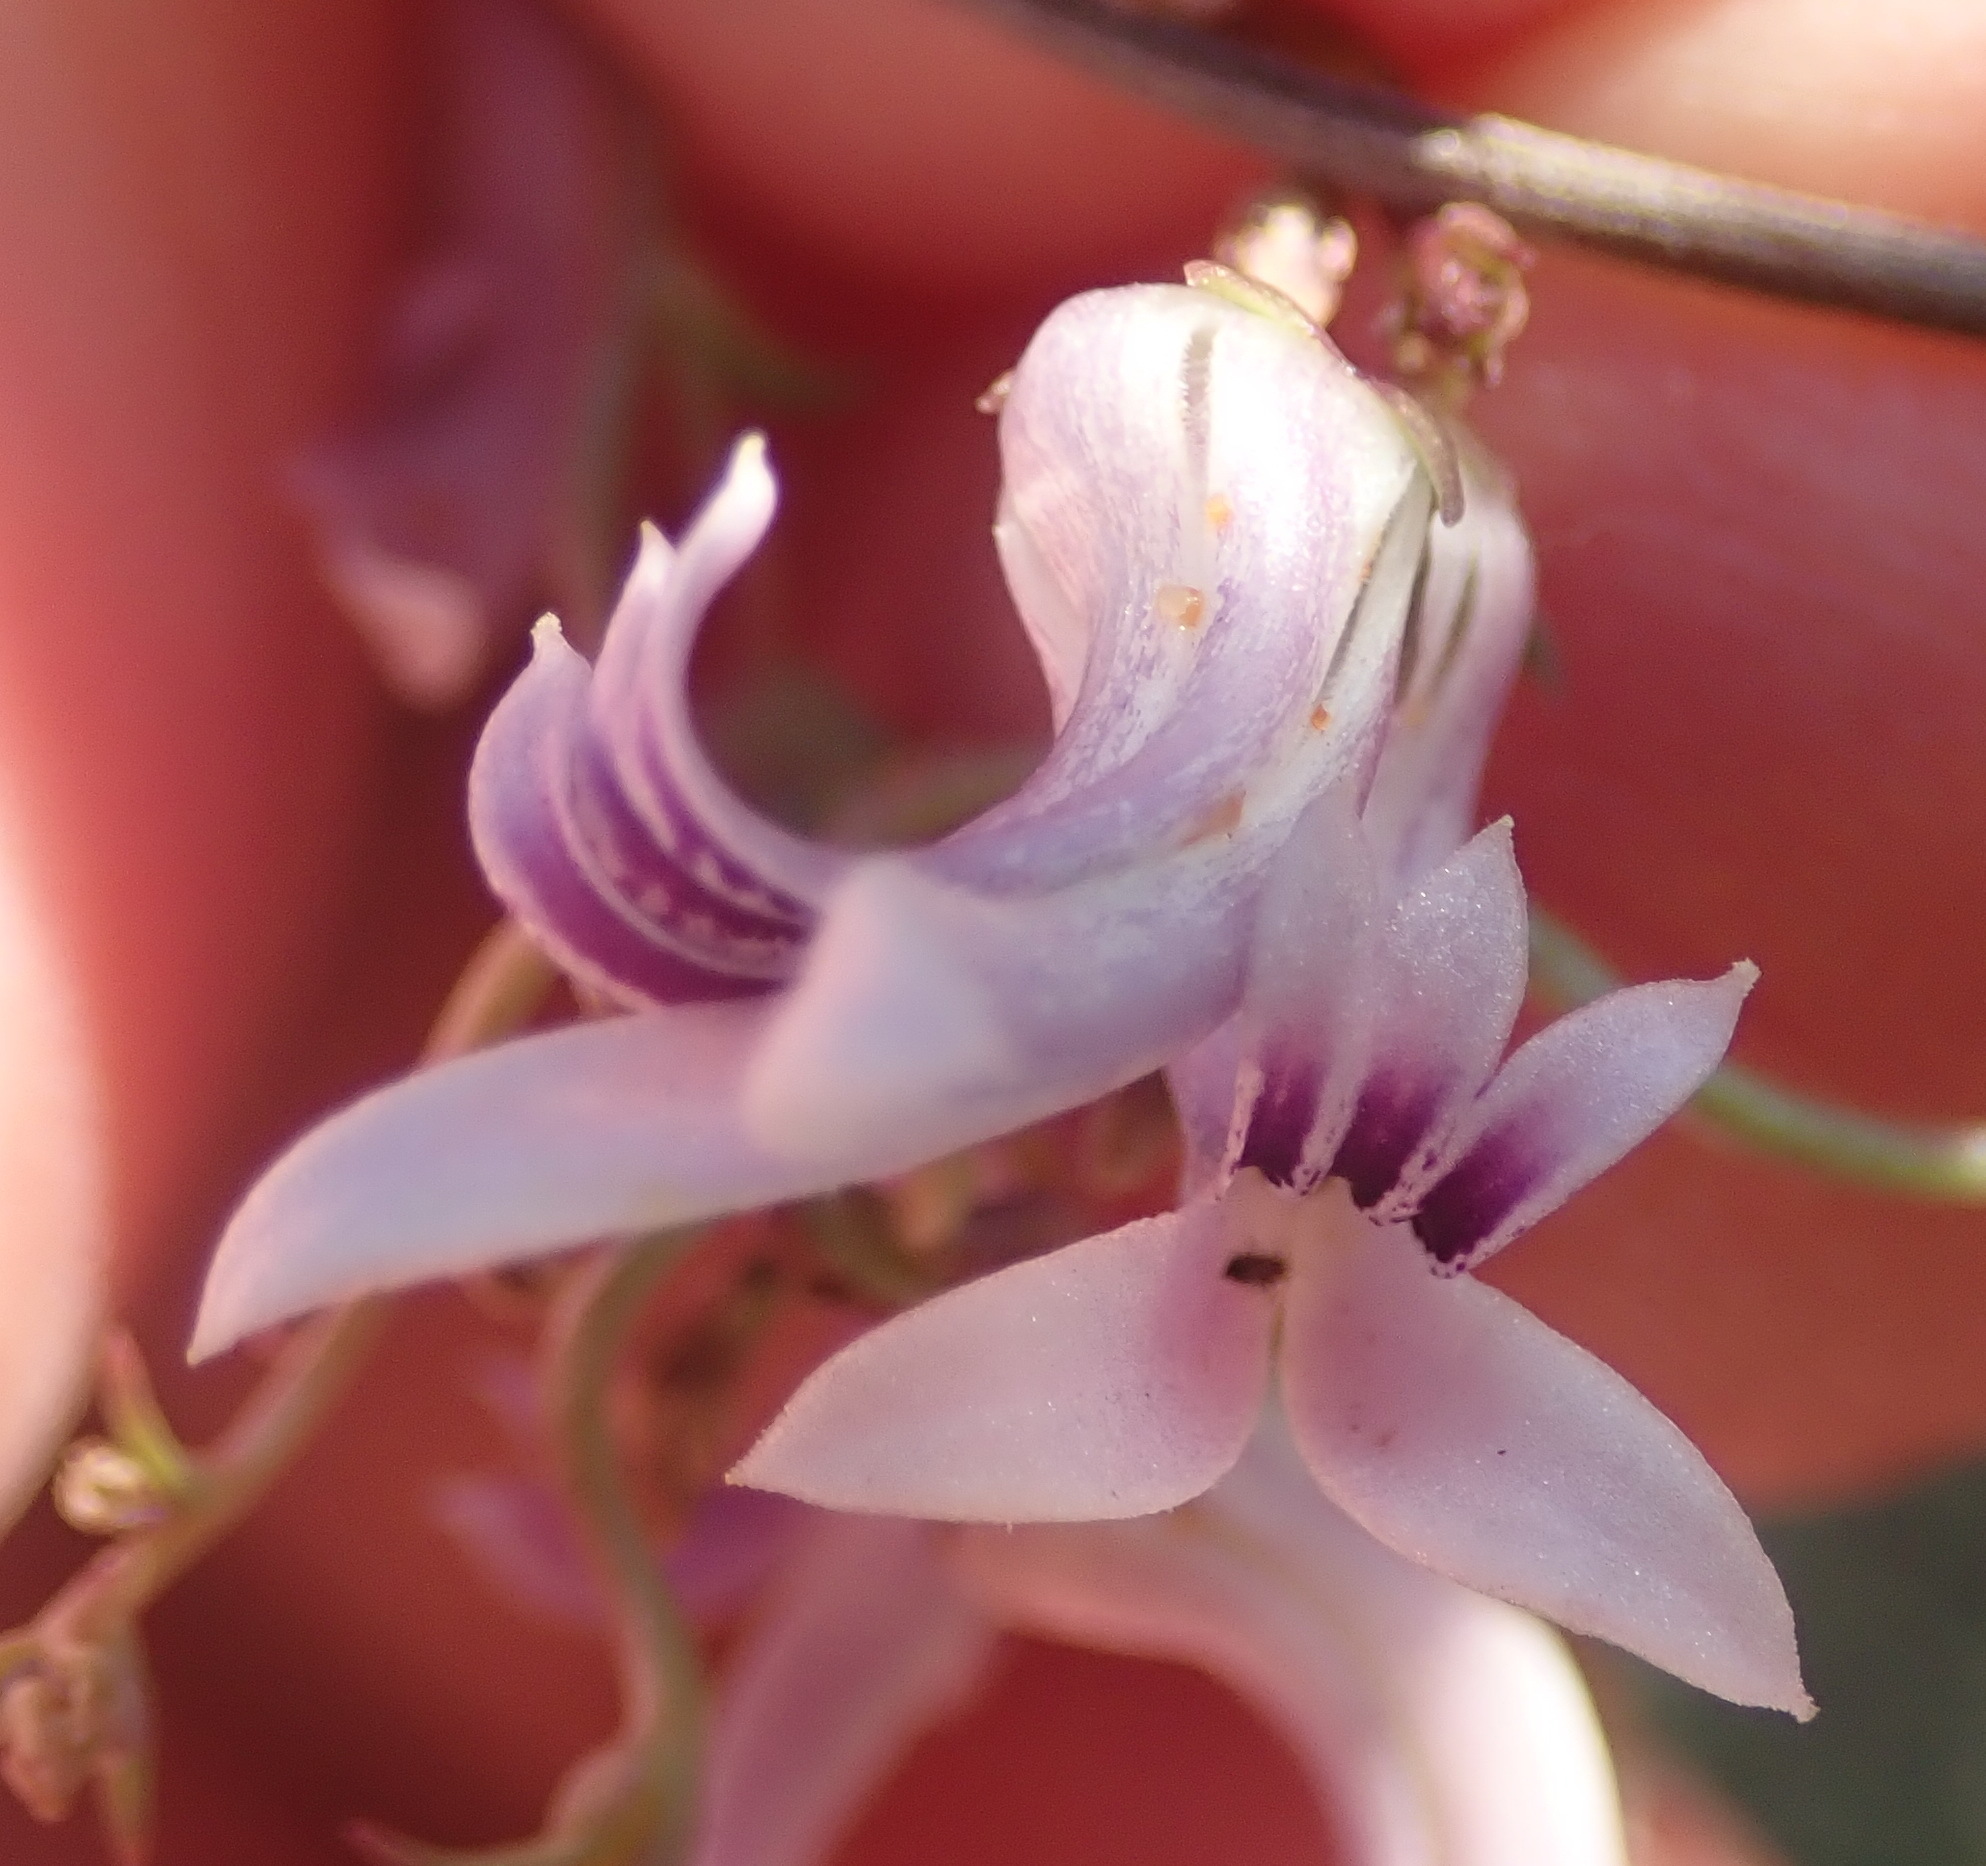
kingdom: Plantae
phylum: Tracheophyta
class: Magnoliopsida
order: Asterales
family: Campanulaceae
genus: Cyphia
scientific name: Cyphia sylvatica
